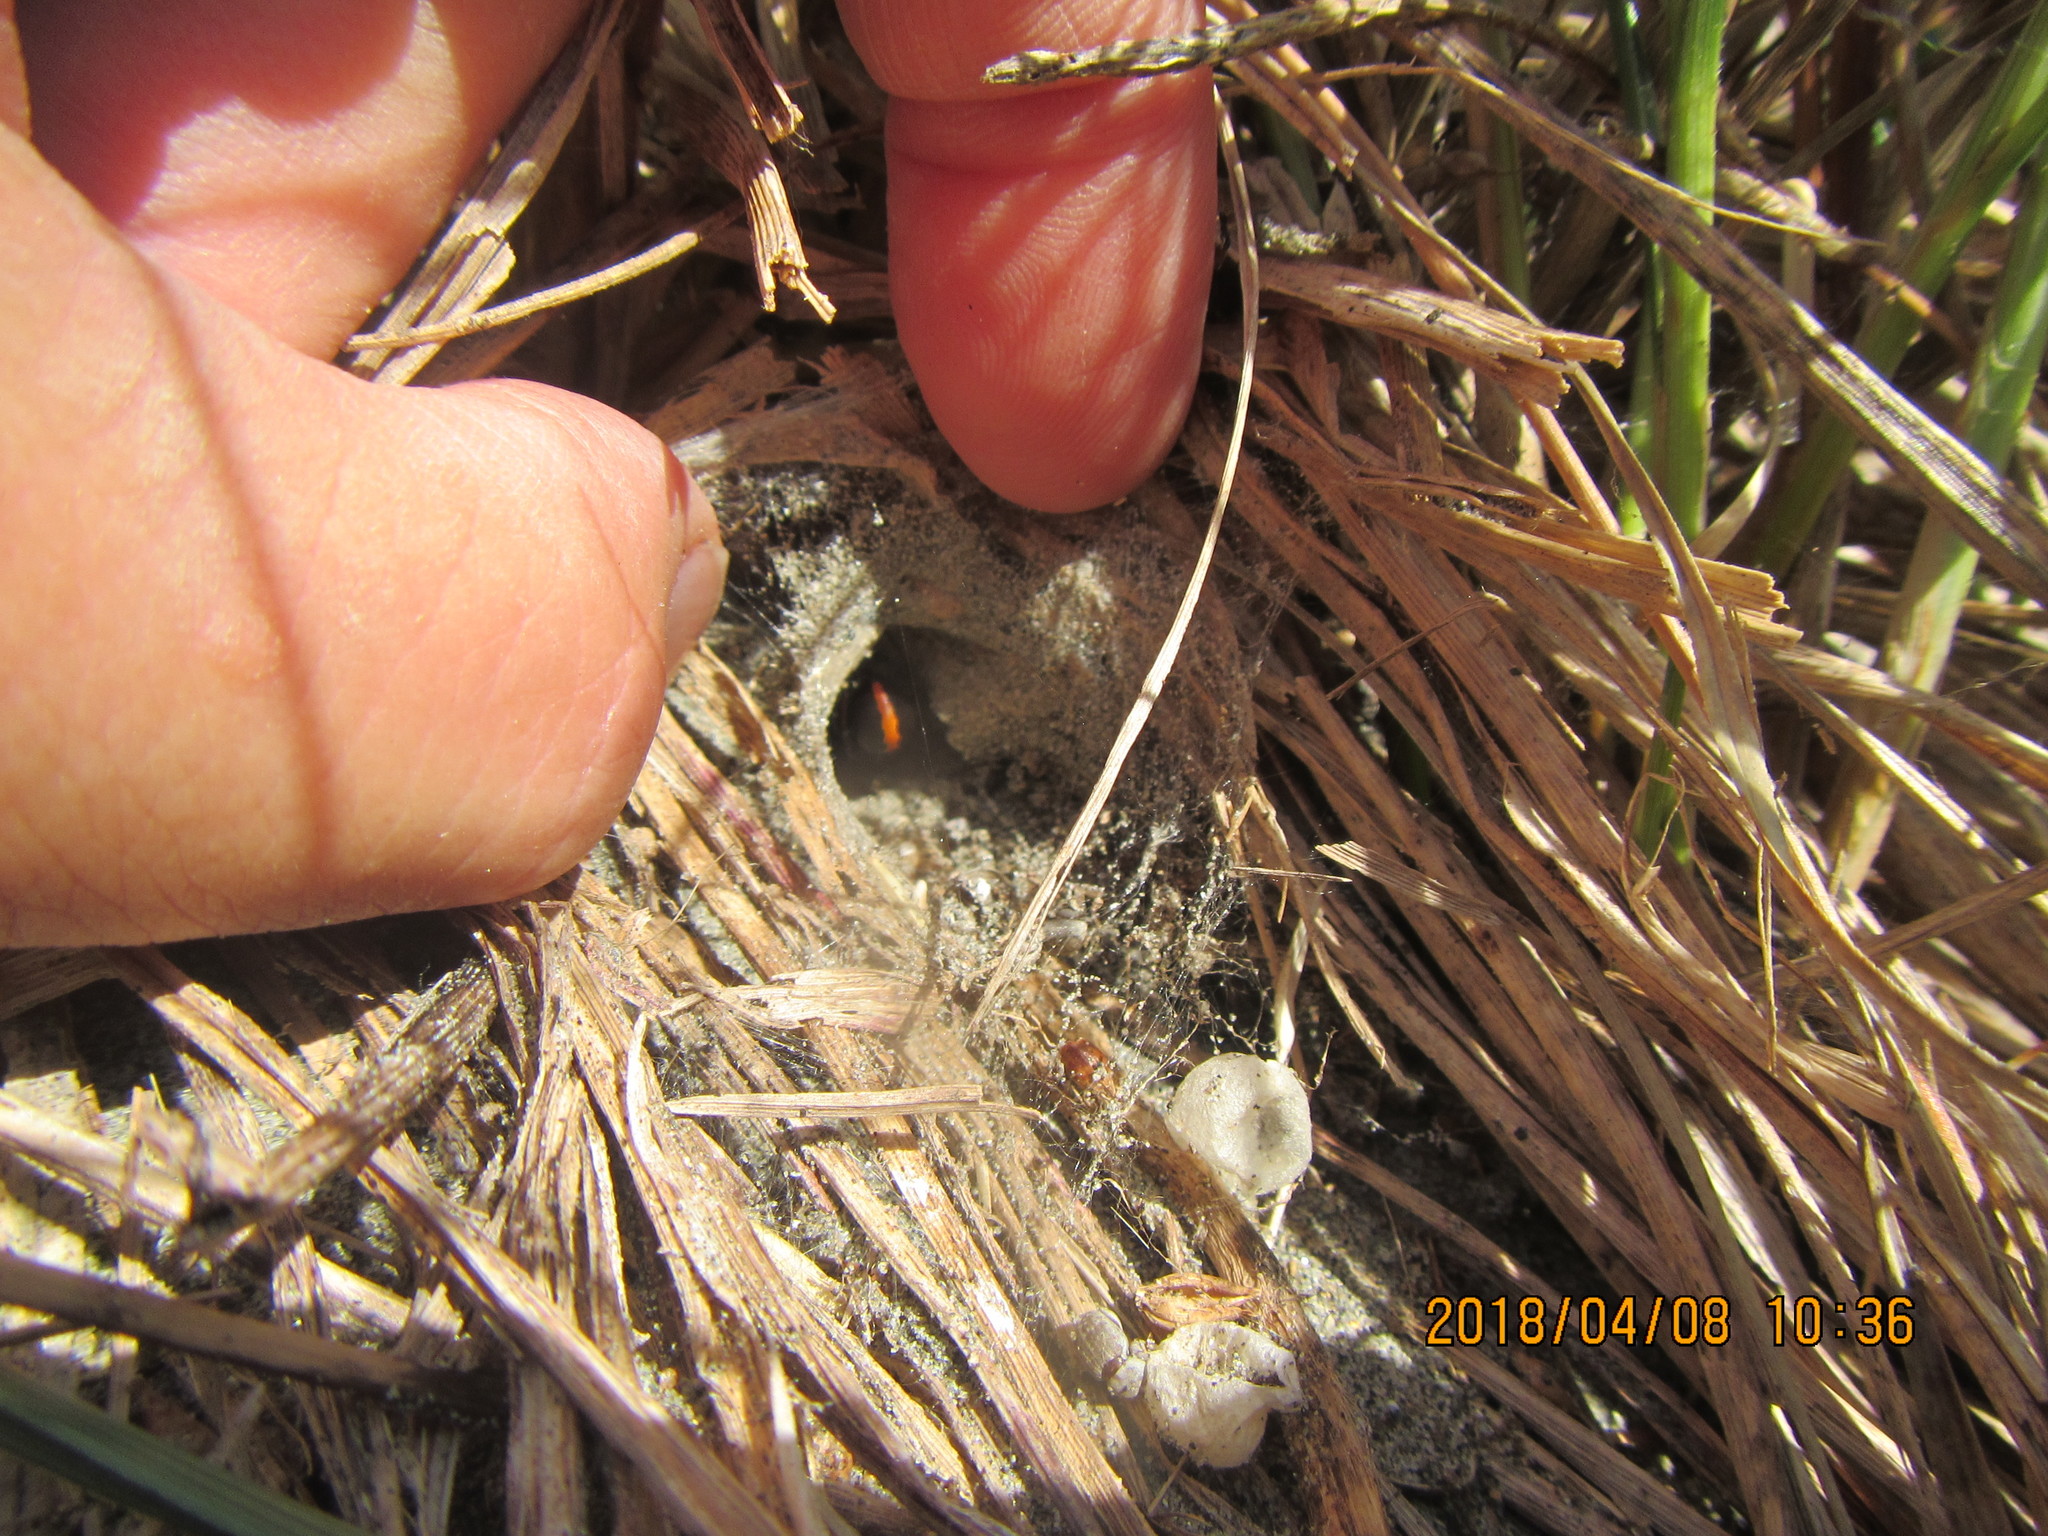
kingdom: Plantae
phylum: Tracheophyta
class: Liliopsida
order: Poales
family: Cyperaceae
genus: Carex
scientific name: Carex pumila
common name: Dwarf sedge
